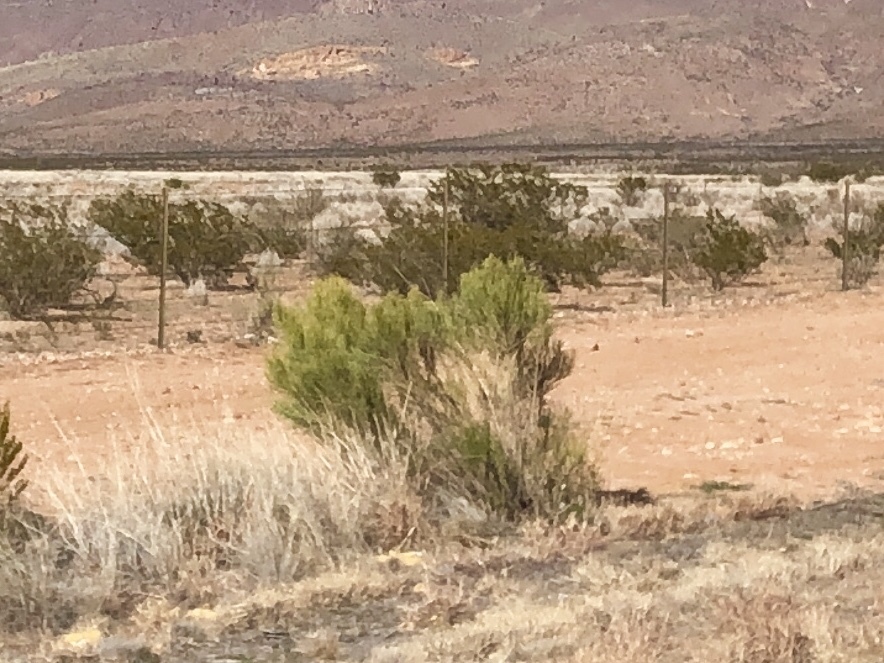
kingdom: Plantae
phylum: Tracheophyta
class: Magnoliopsida
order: Asterales
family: Asteraceae
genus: Baccharis
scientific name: Baccharis sarothroides
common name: Desert-broom
